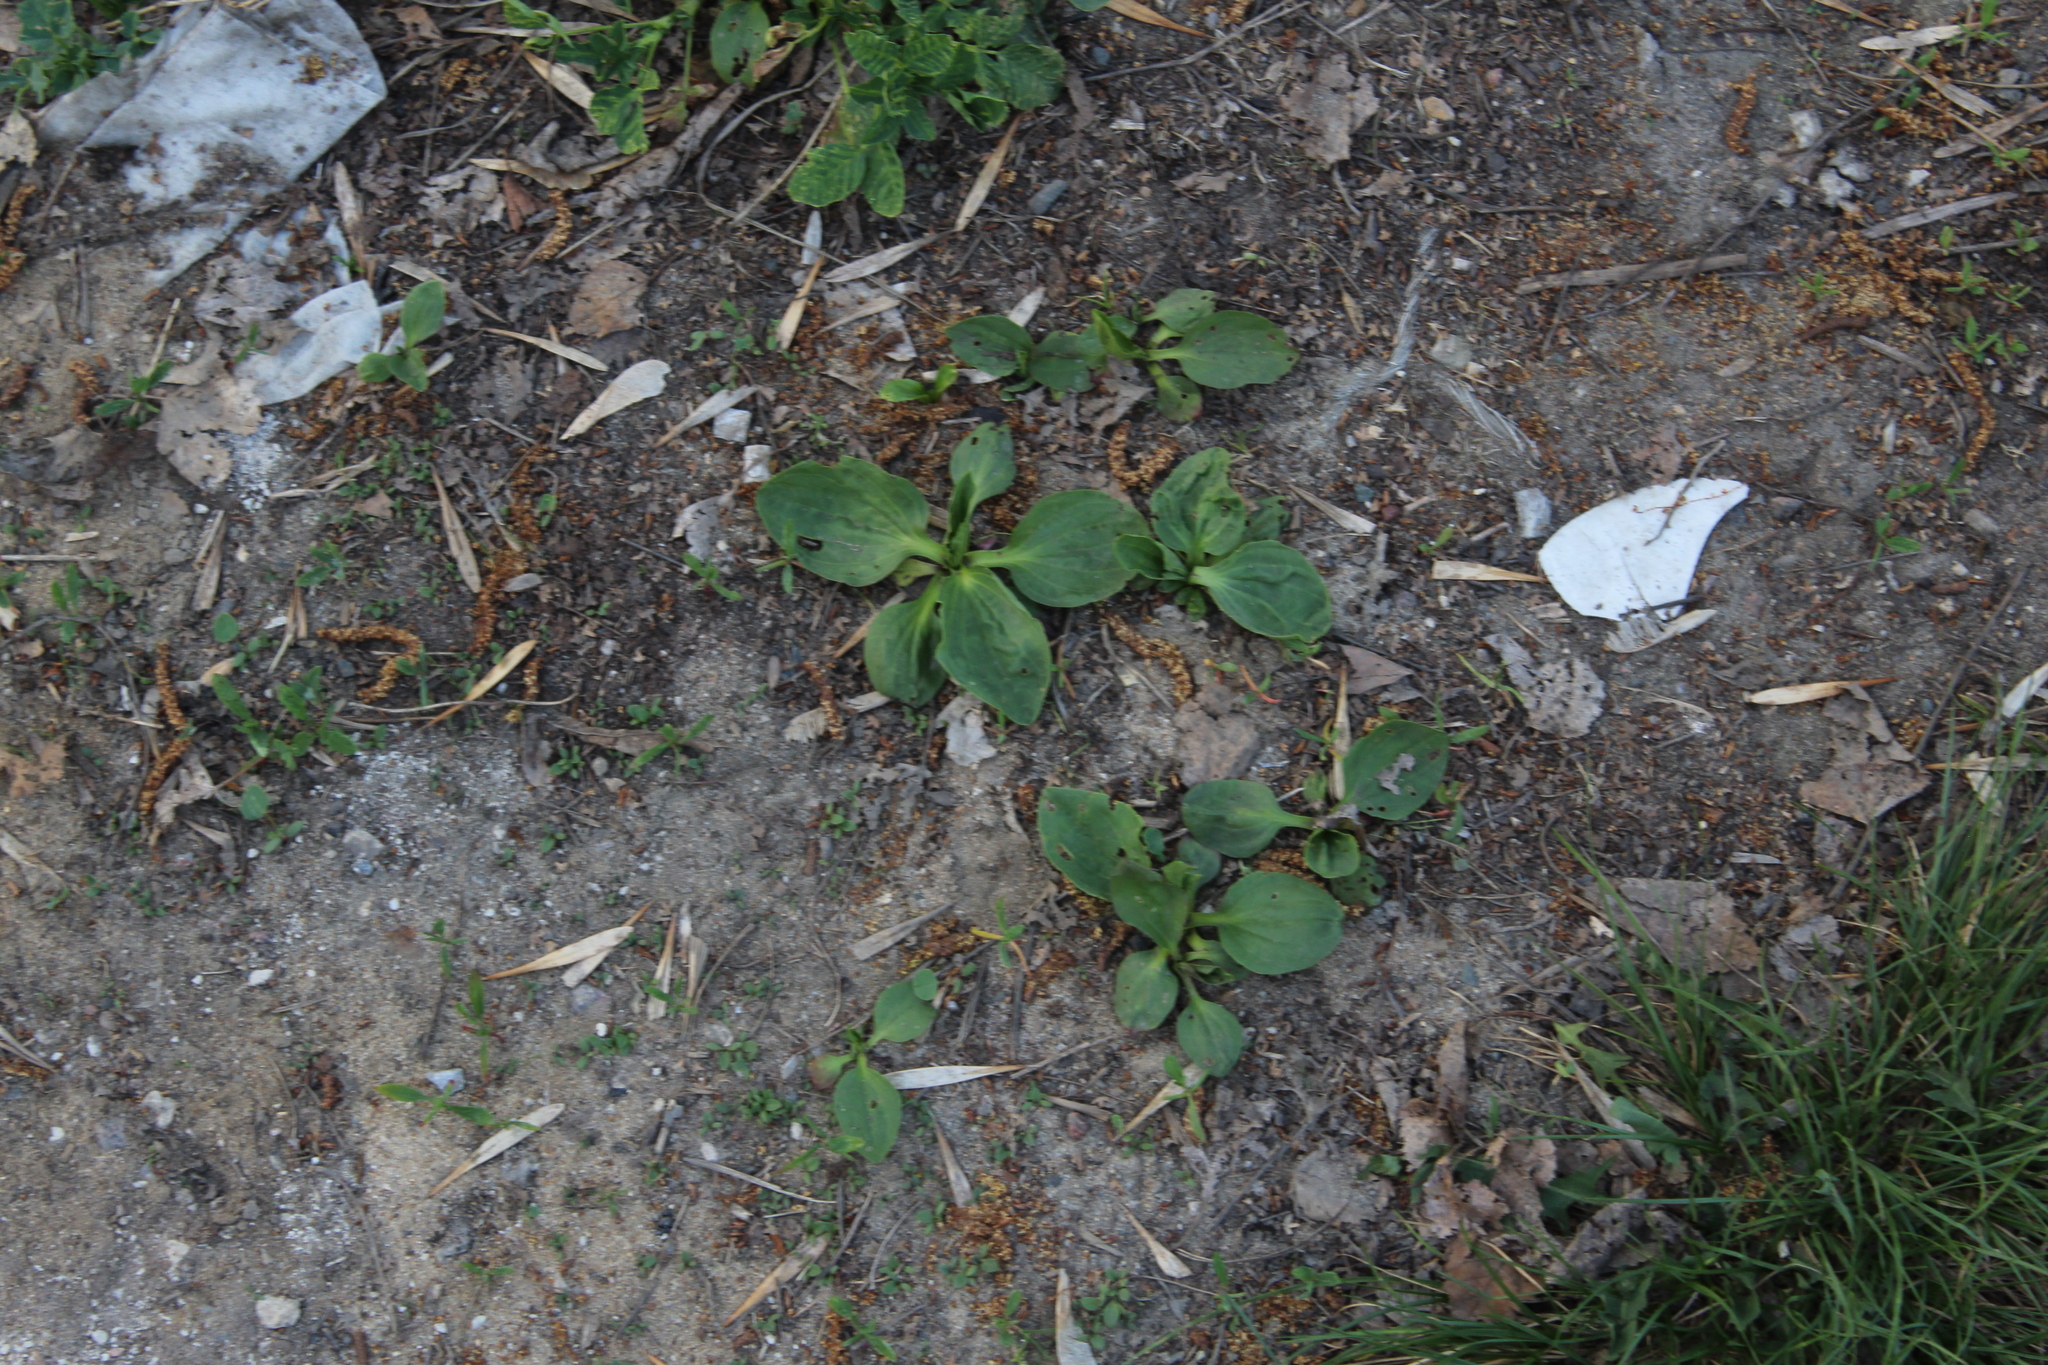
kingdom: Plantae
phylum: Tracheophyta
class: Magnoliopsida
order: Lamiales
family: Plantaginaceae
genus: Plantago
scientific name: Plantago major
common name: Common plantain
